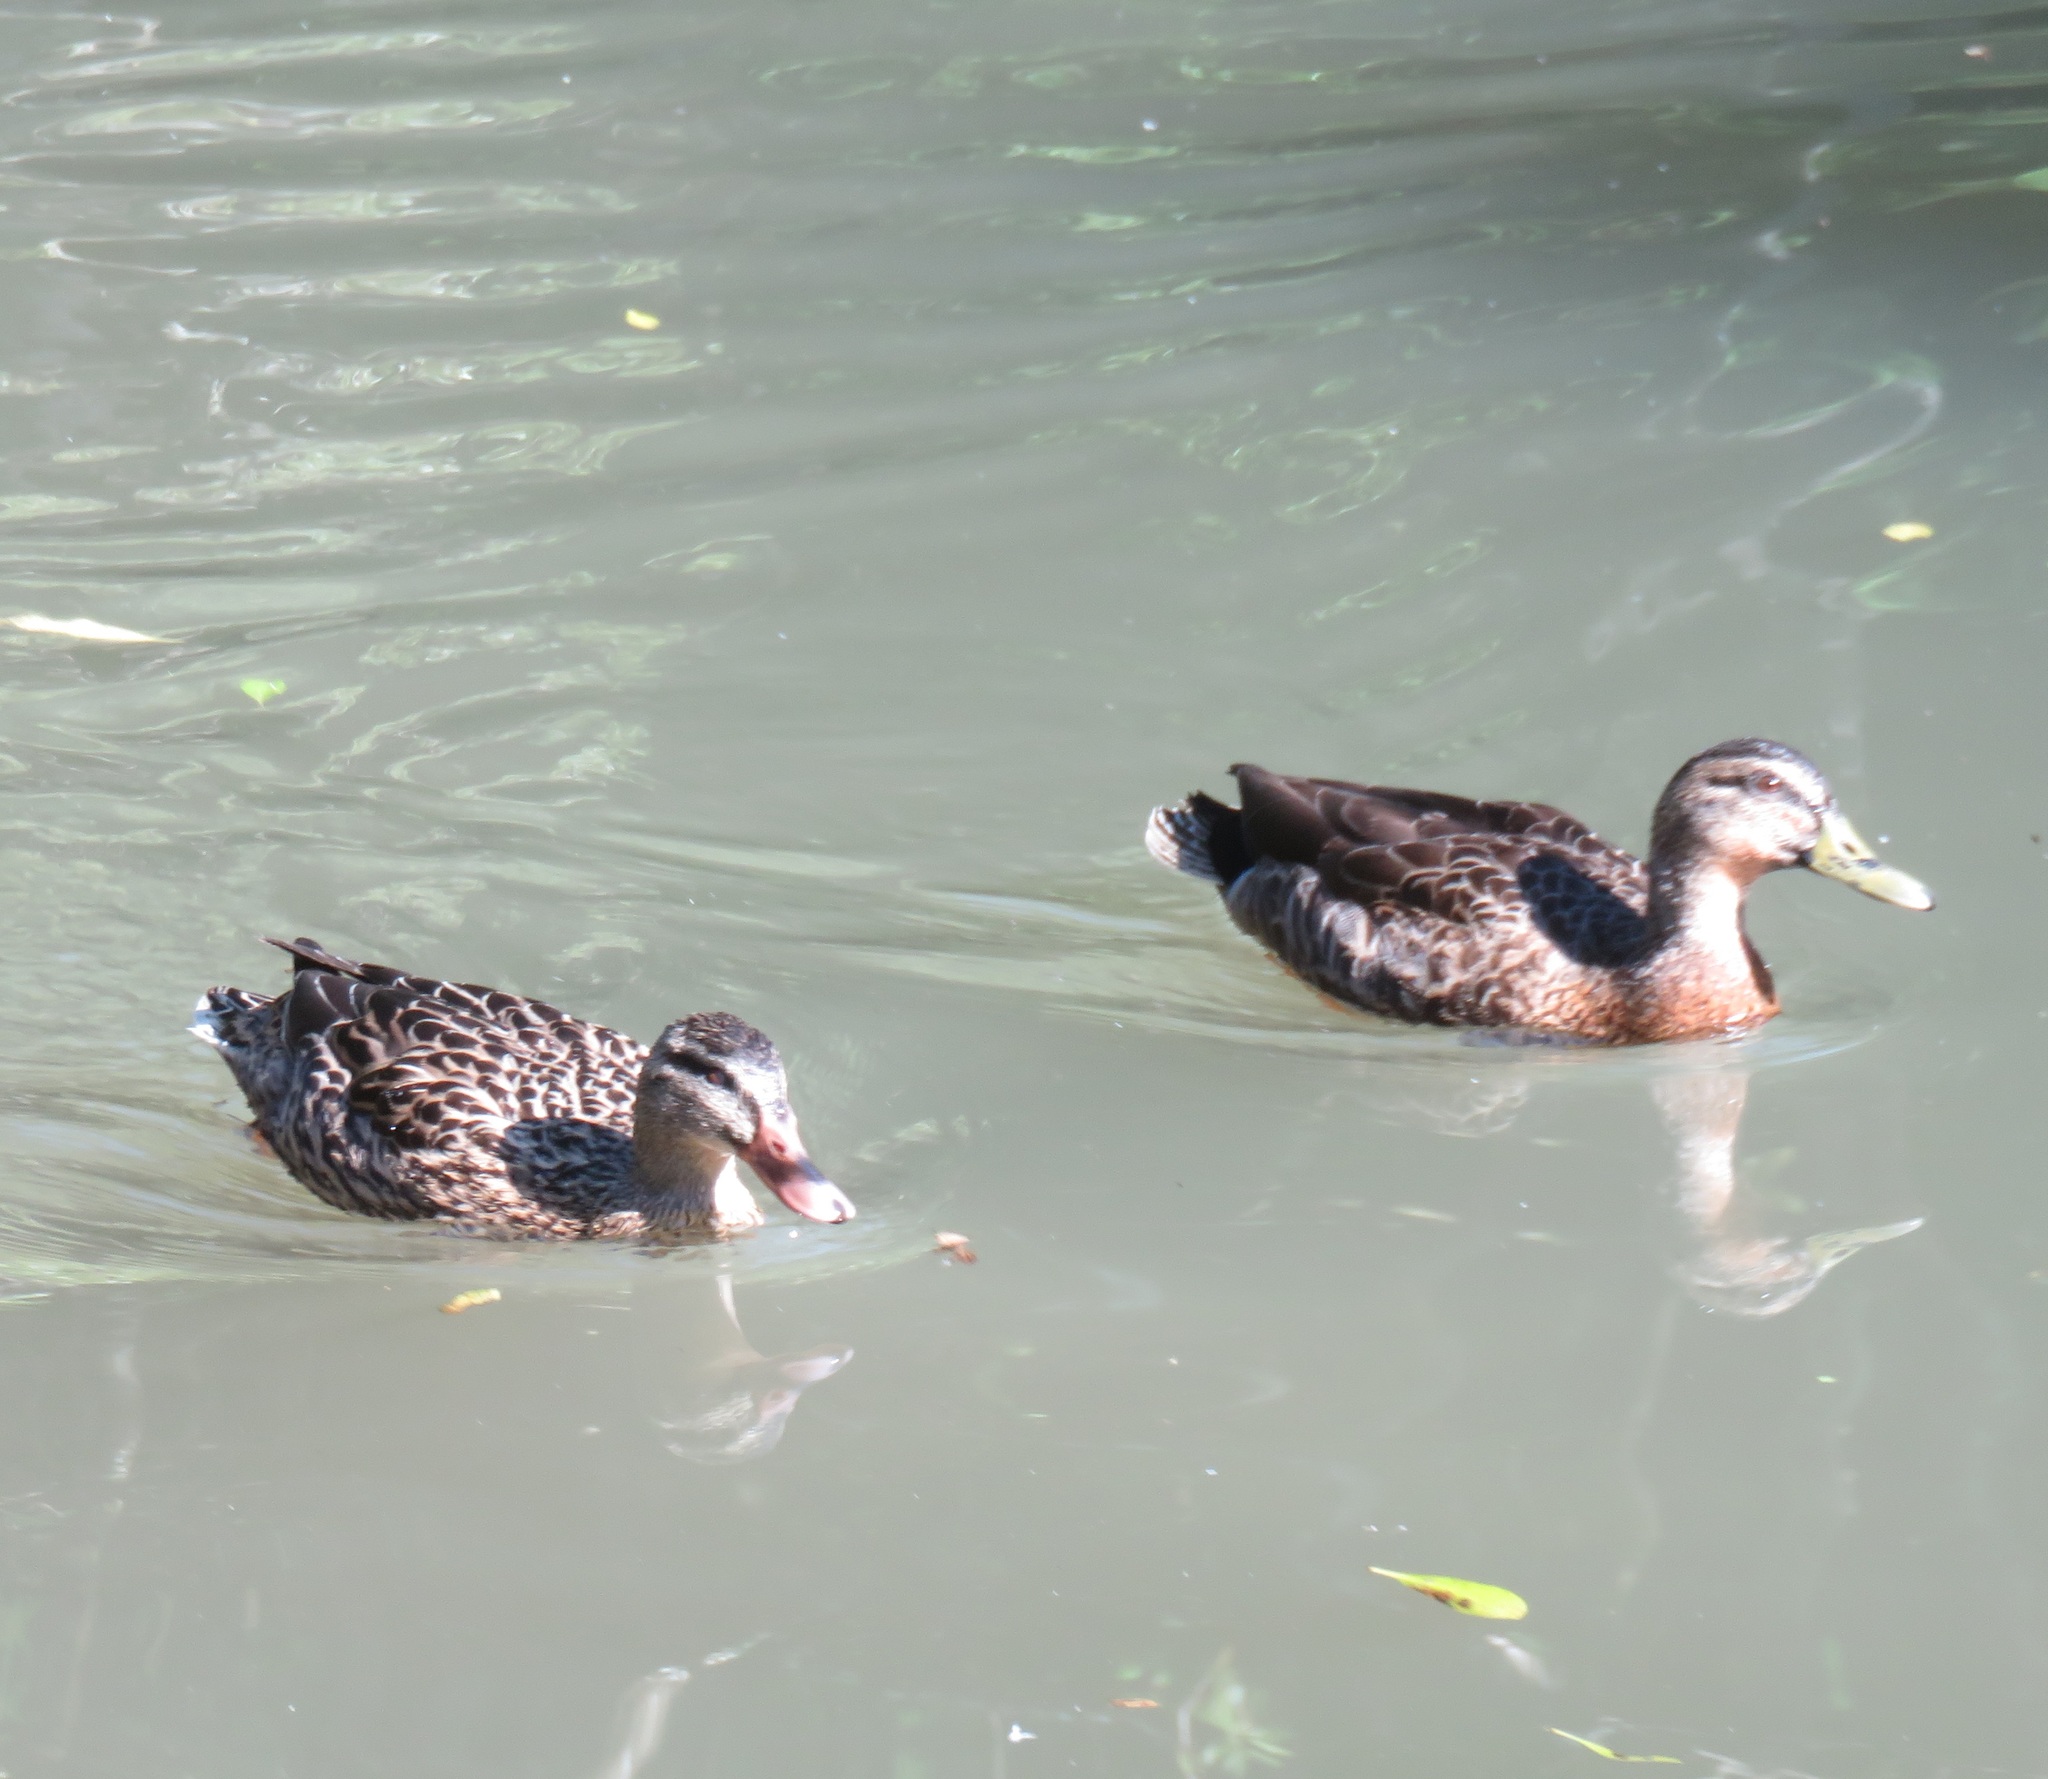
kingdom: Animalia
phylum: Chordata
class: Aves
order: Anseriformes
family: Anatidae
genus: Anas
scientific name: Anas
